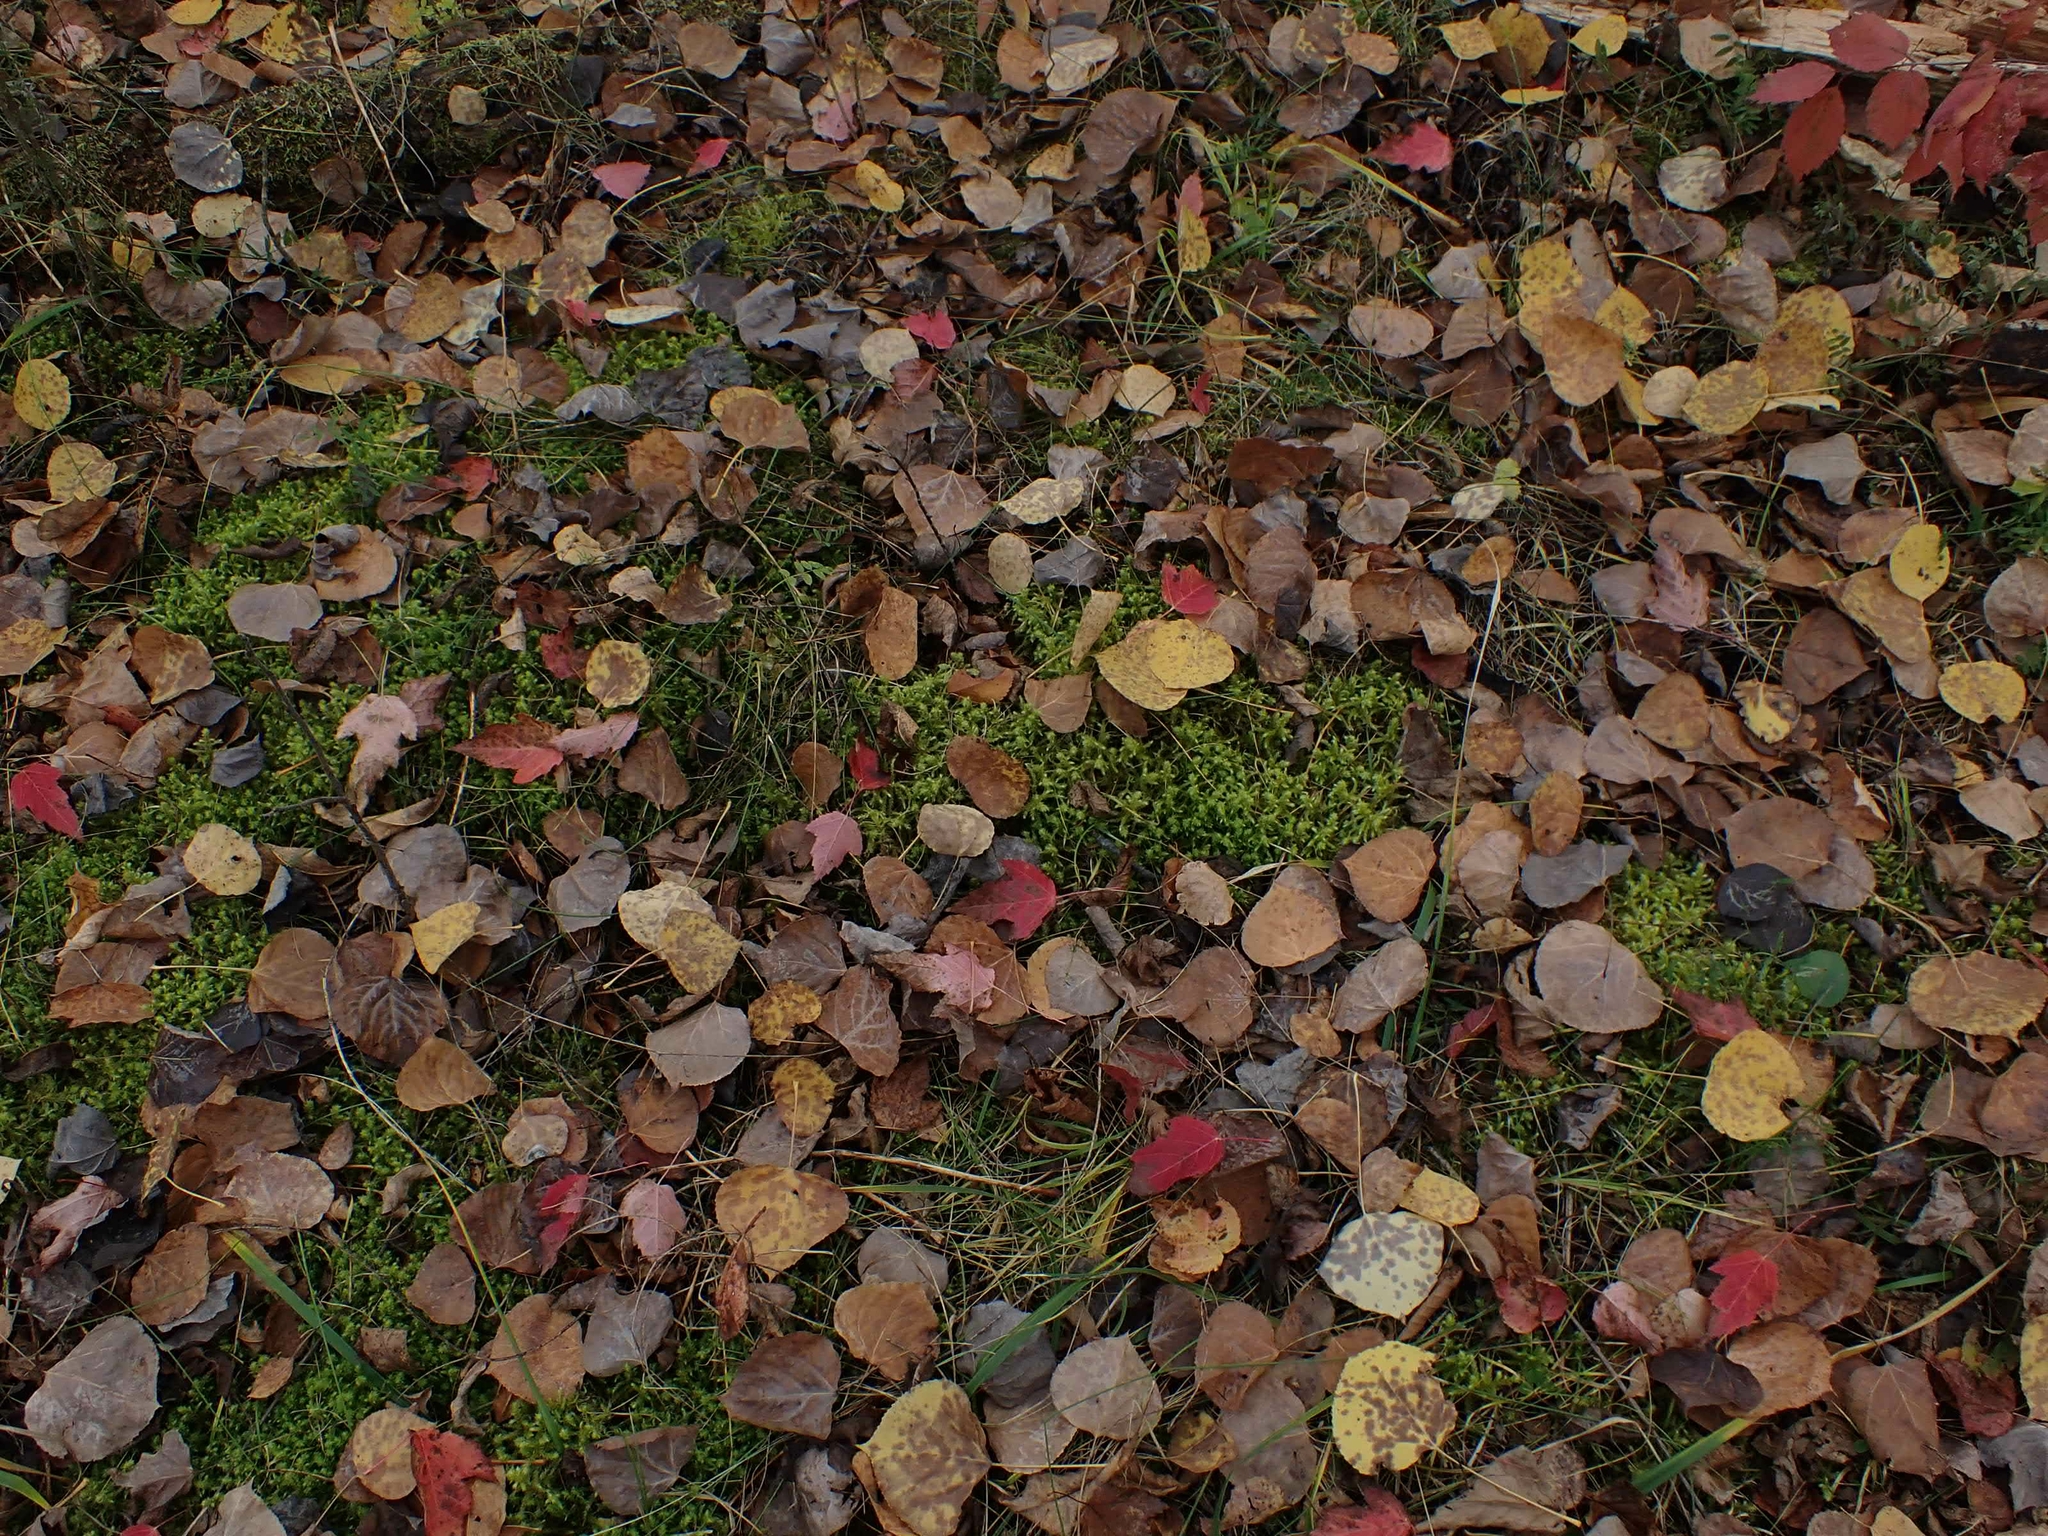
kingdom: Plantae
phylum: Bryophyta
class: Bryopsida
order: Hypnales
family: Hylocomiaceae
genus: Hylocomiadelphus
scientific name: Hylocomiadelphus triquetrus
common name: Rough goose neck moss
